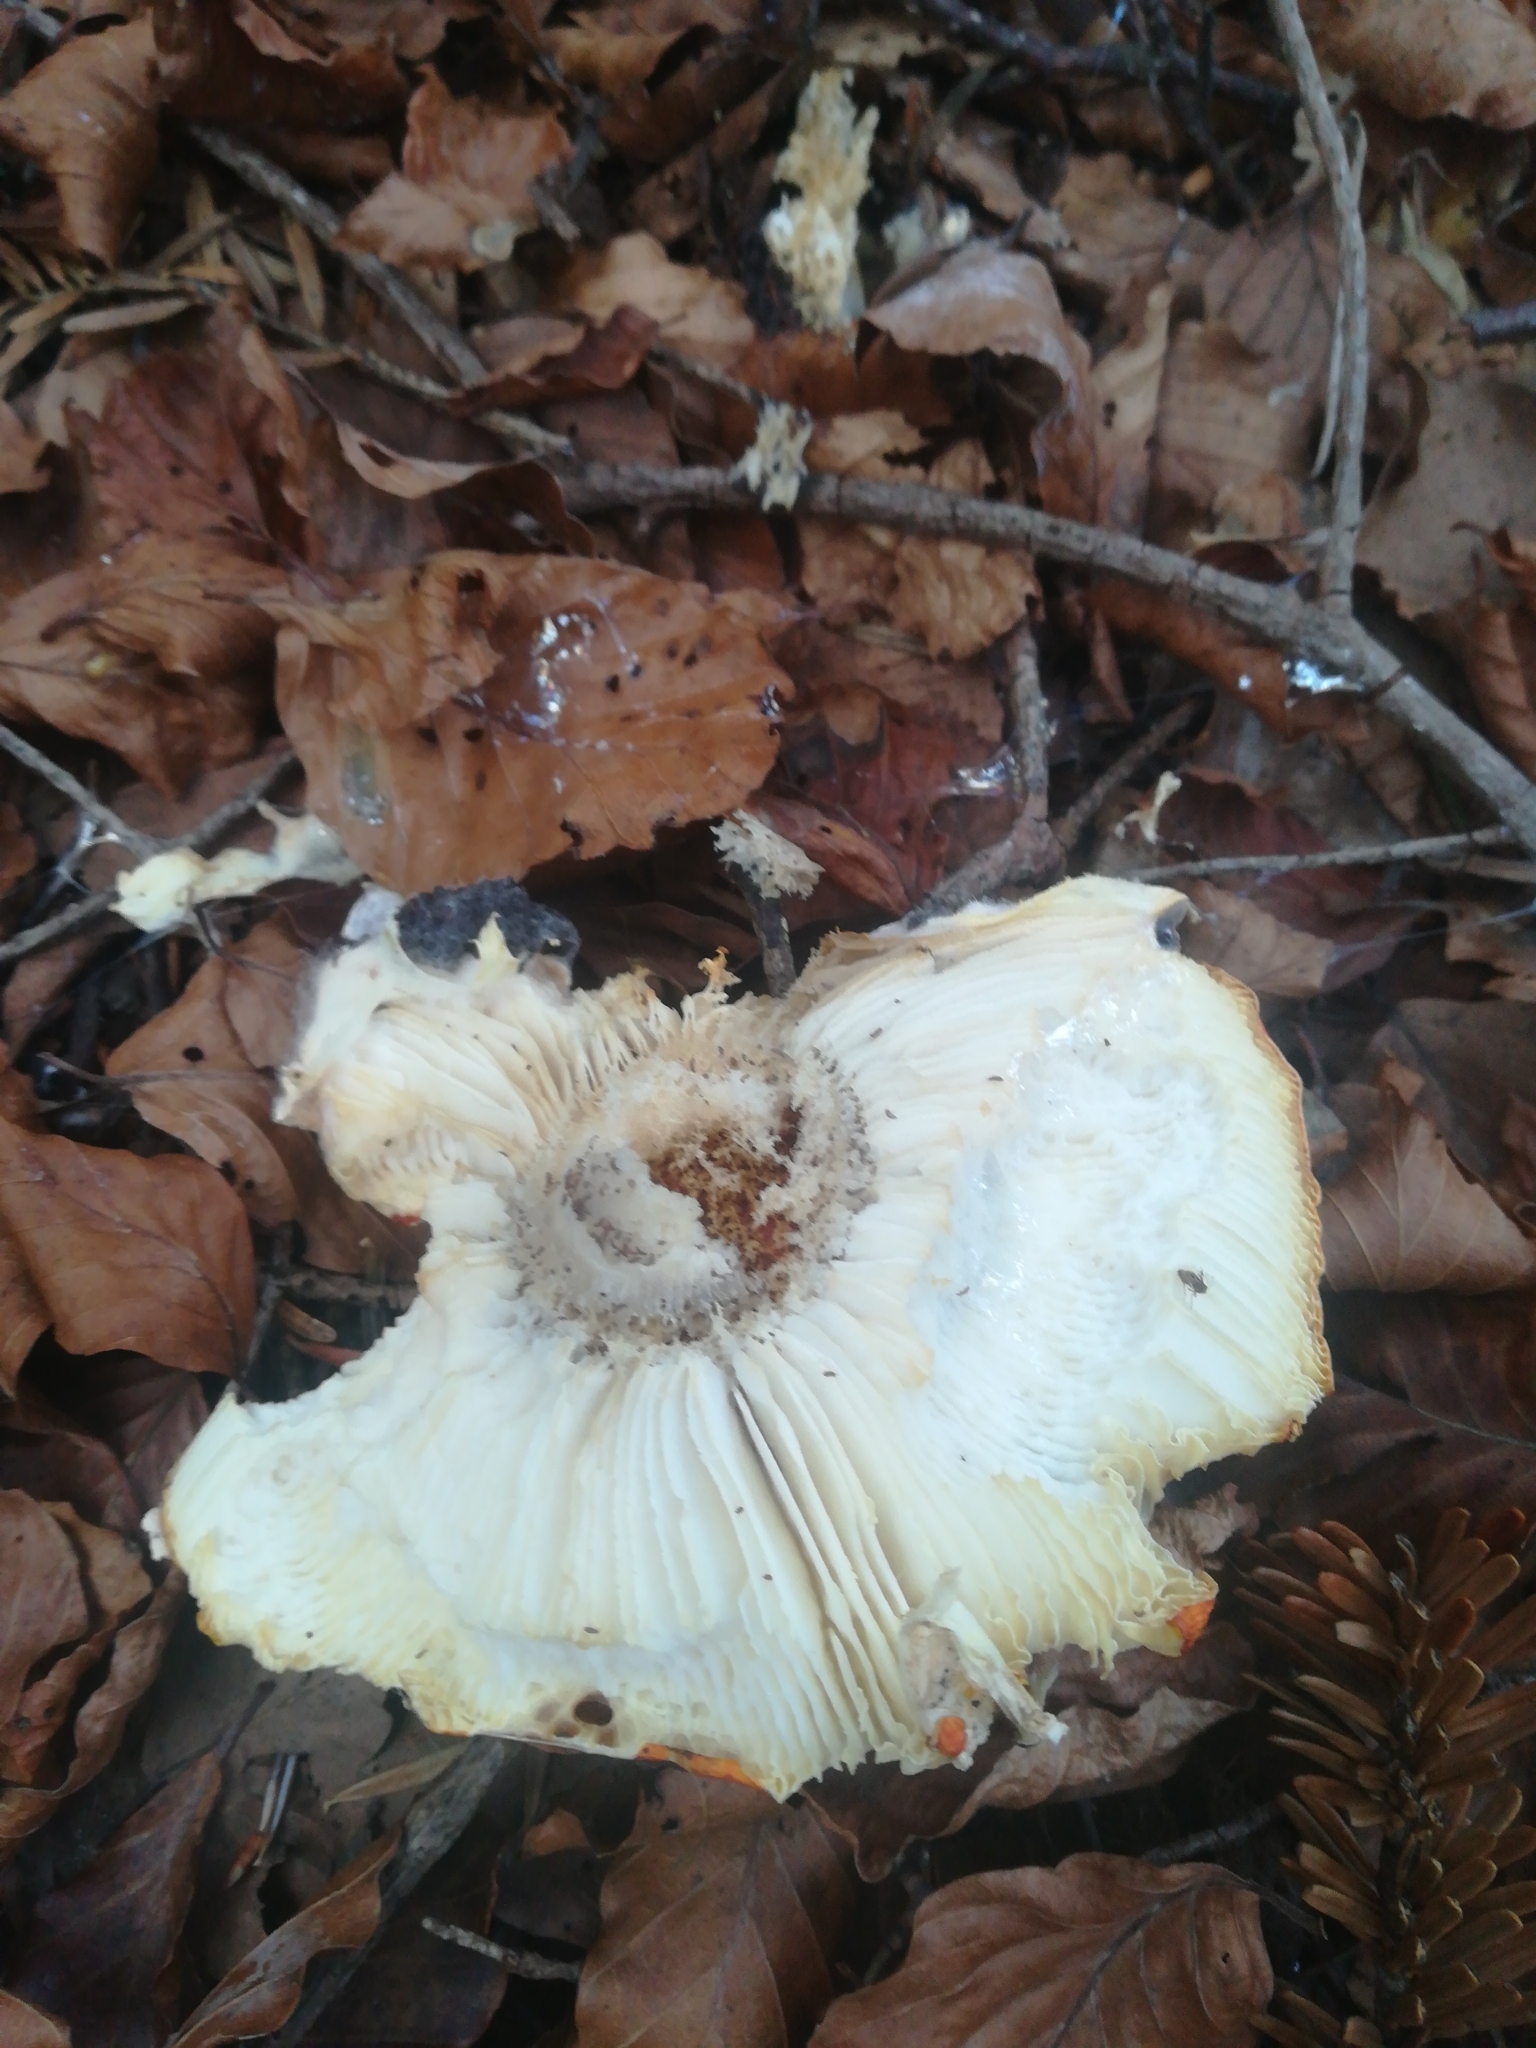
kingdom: Fungi
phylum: Basidiomycota
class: Agaricomycetes
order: Agaricales
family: Amanitaceae
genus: Amanita
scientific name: Amanita muscaria
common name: Fly agaric
